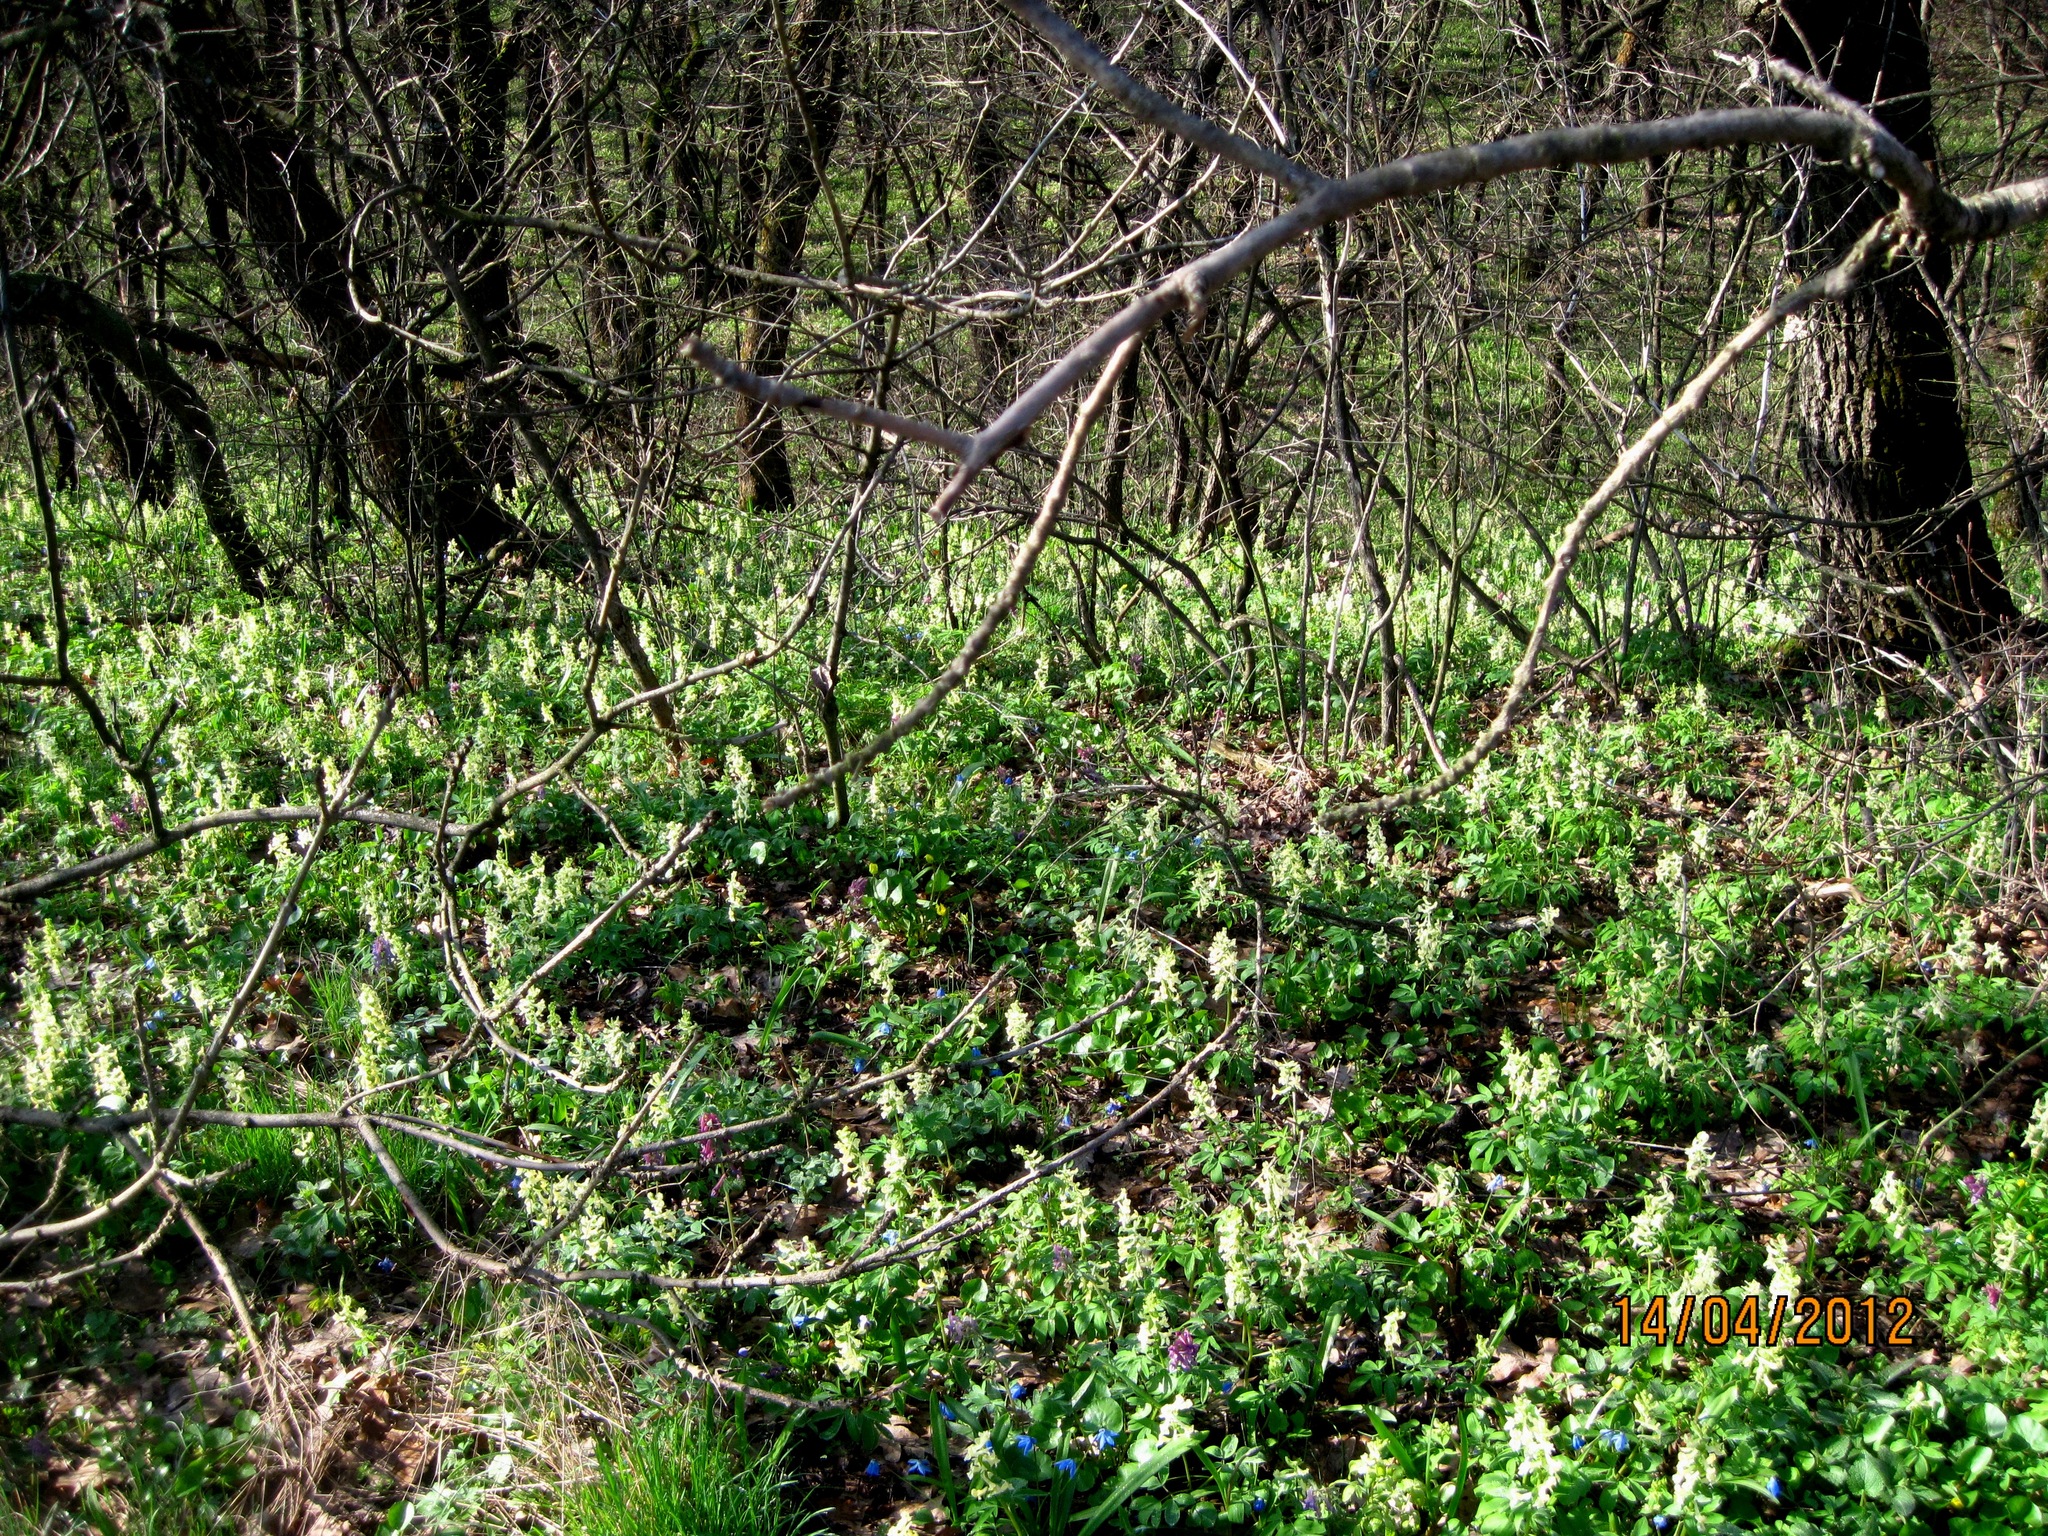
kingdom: Plantae
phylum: Tracheophyta
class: Magnoliopsida
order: Ranunculales
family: Papaveraceae
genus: Corydalis
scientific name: Corydalis cava
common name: Hollowroot
